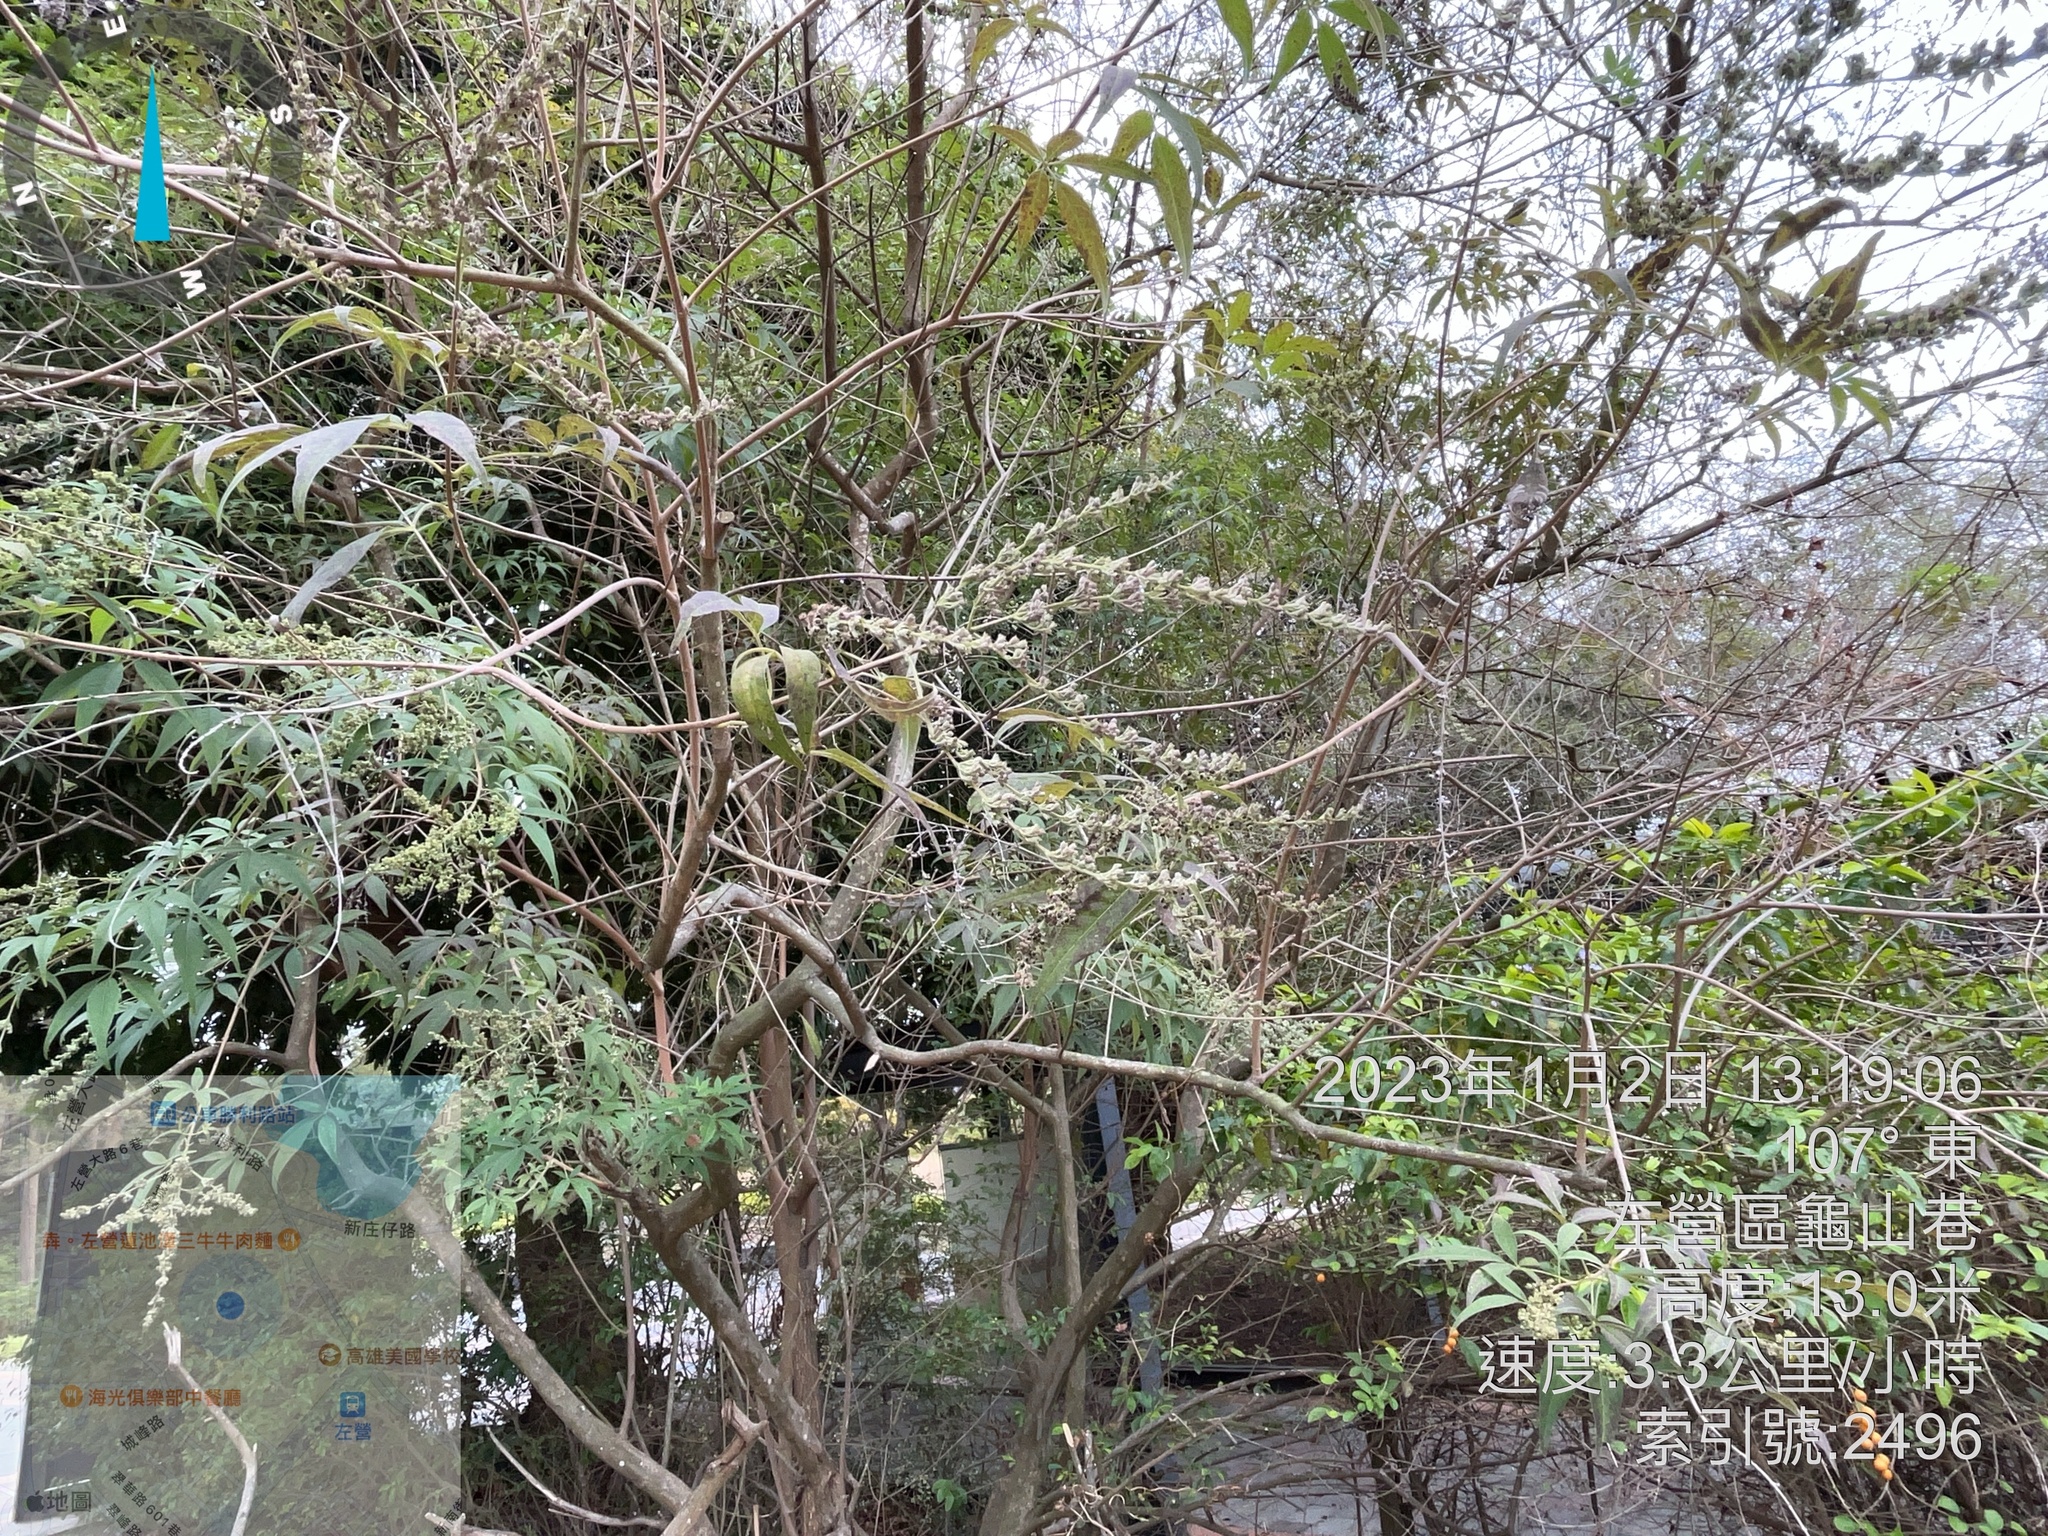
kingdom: Plantae
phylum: Tracheophyta
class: Magnoliopsida
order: Lamiales
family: Lamiaceae
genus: Vitex
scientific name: Vitex negundo
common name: Chinese chastetree
